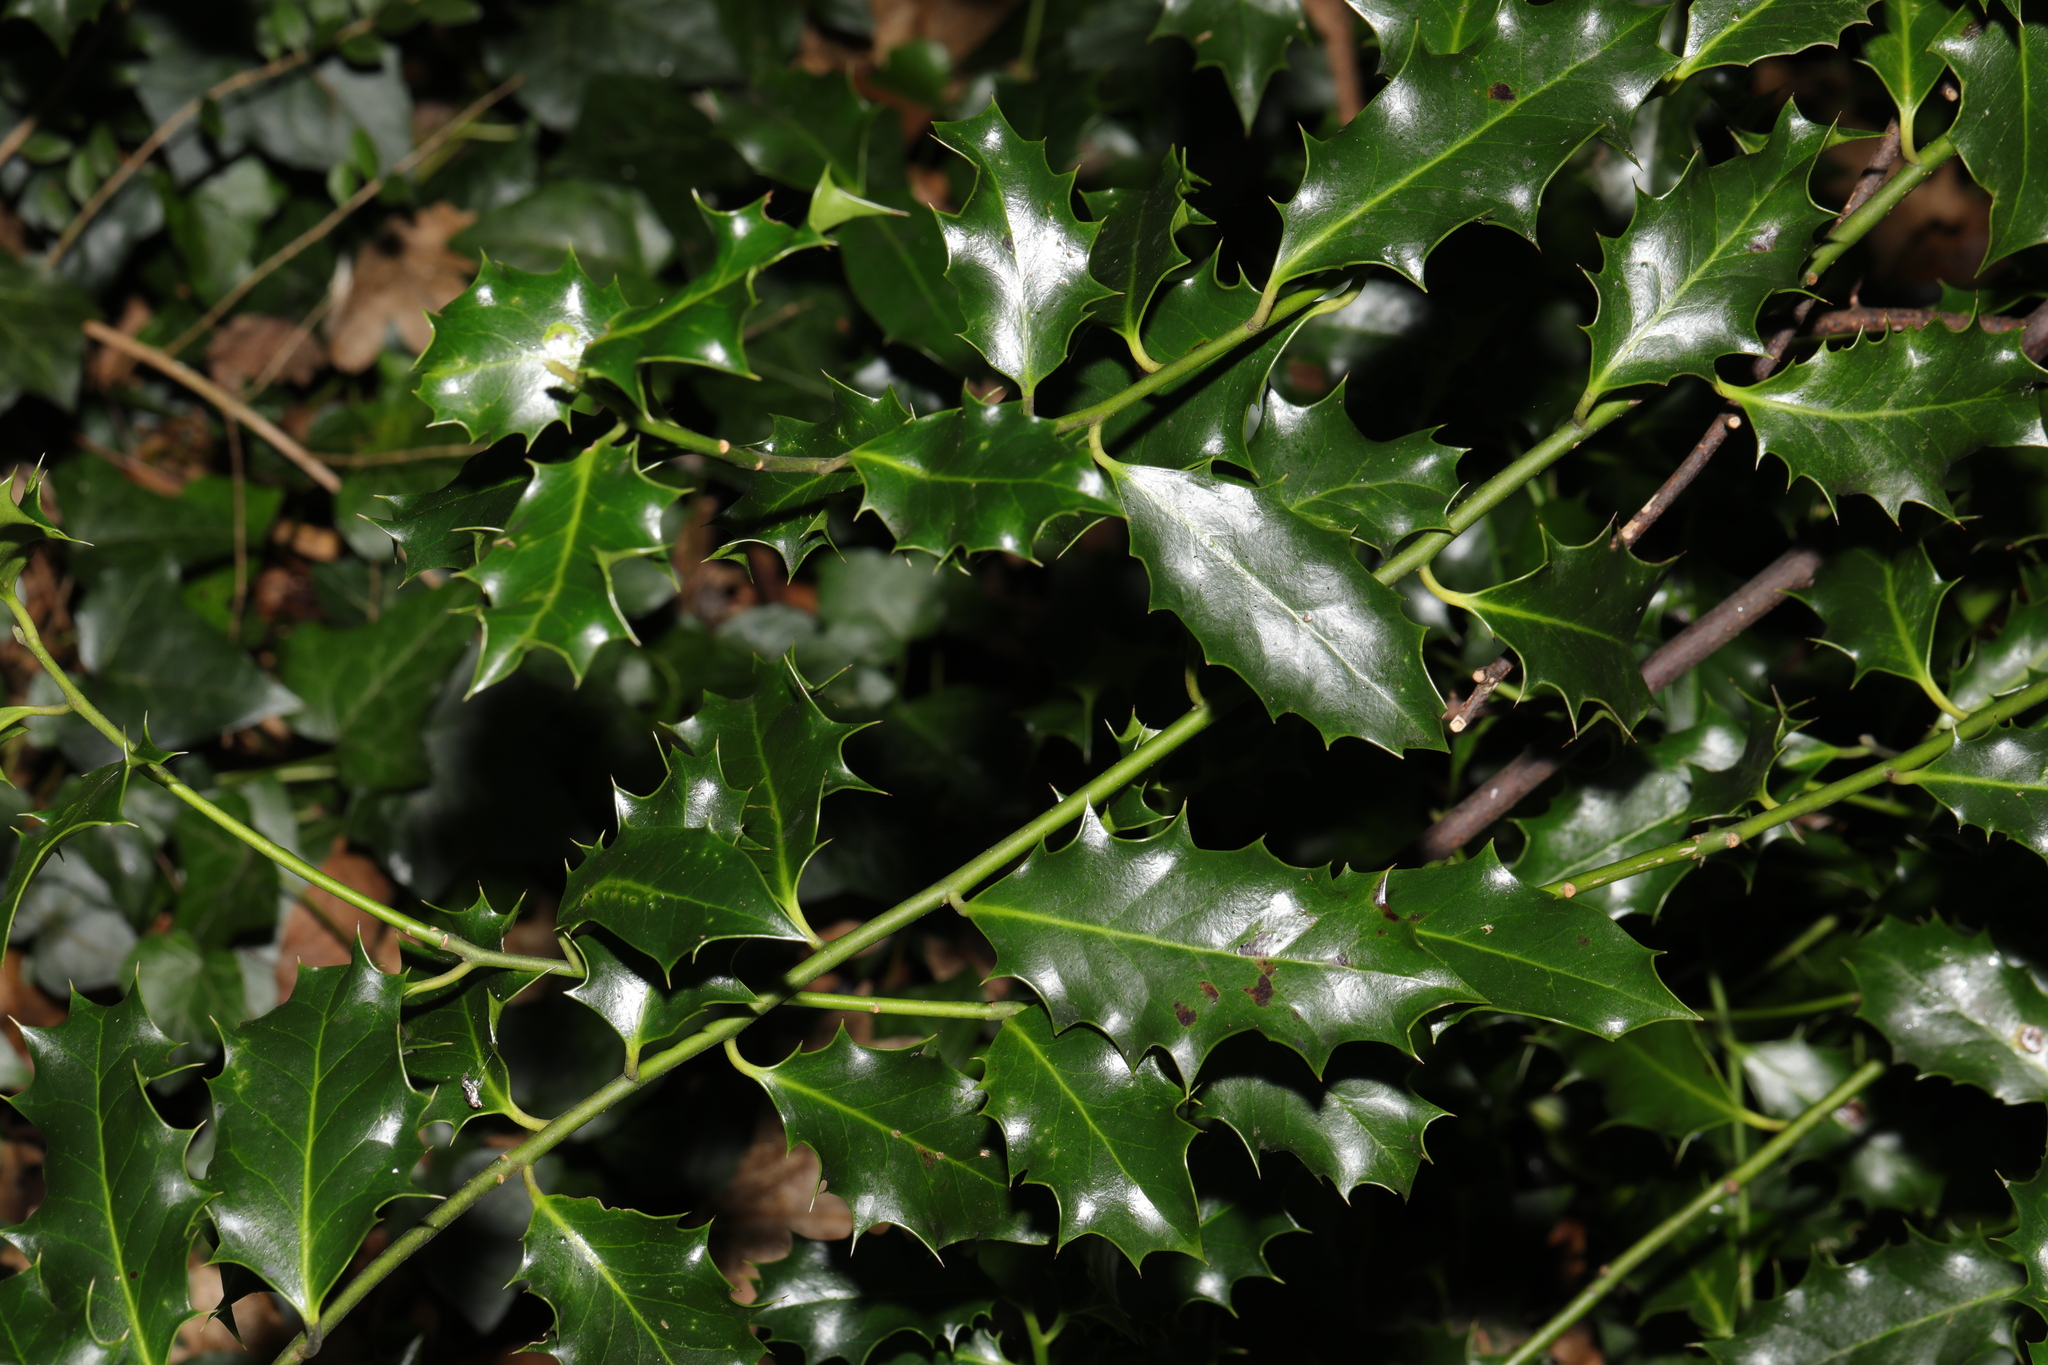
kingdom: Plantae
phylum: Tracheophyta
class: Magnoliopsida
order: Aquifoliales
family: Aquifoliaceae
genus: Ilex
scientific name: Ilex aquifolium
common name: English holly
